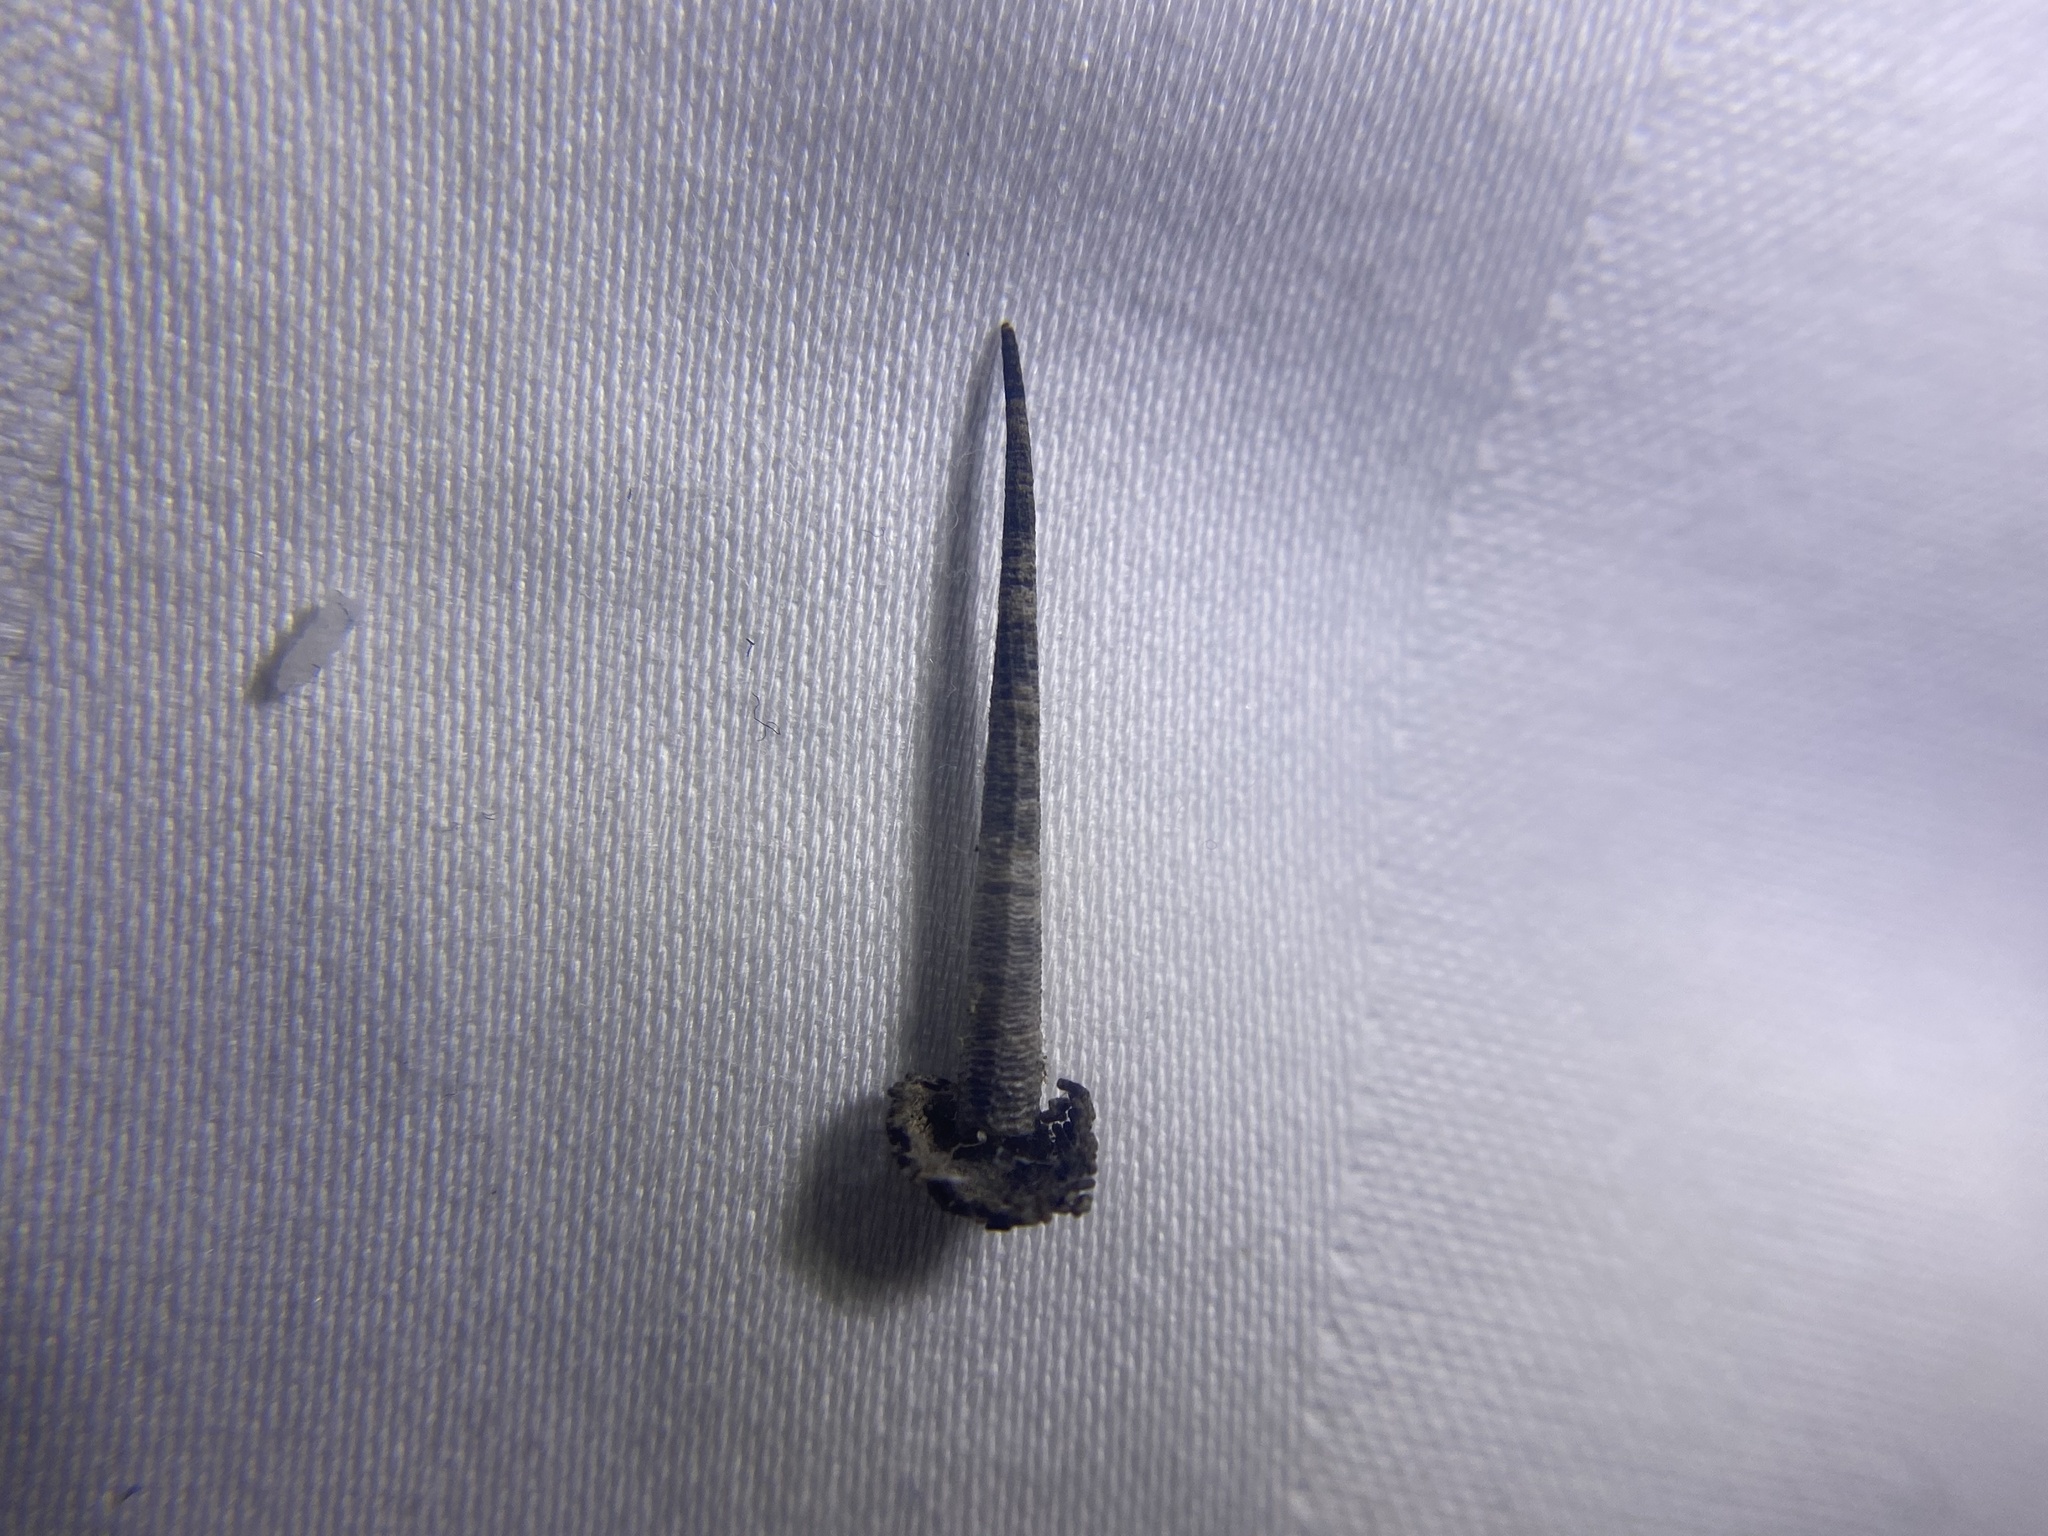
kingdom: Animalia
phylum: Arthropoda
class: Insecta
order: Lepidoptera
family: Coleophoridae
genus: Homaledra
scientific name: Homaledra octagonella
